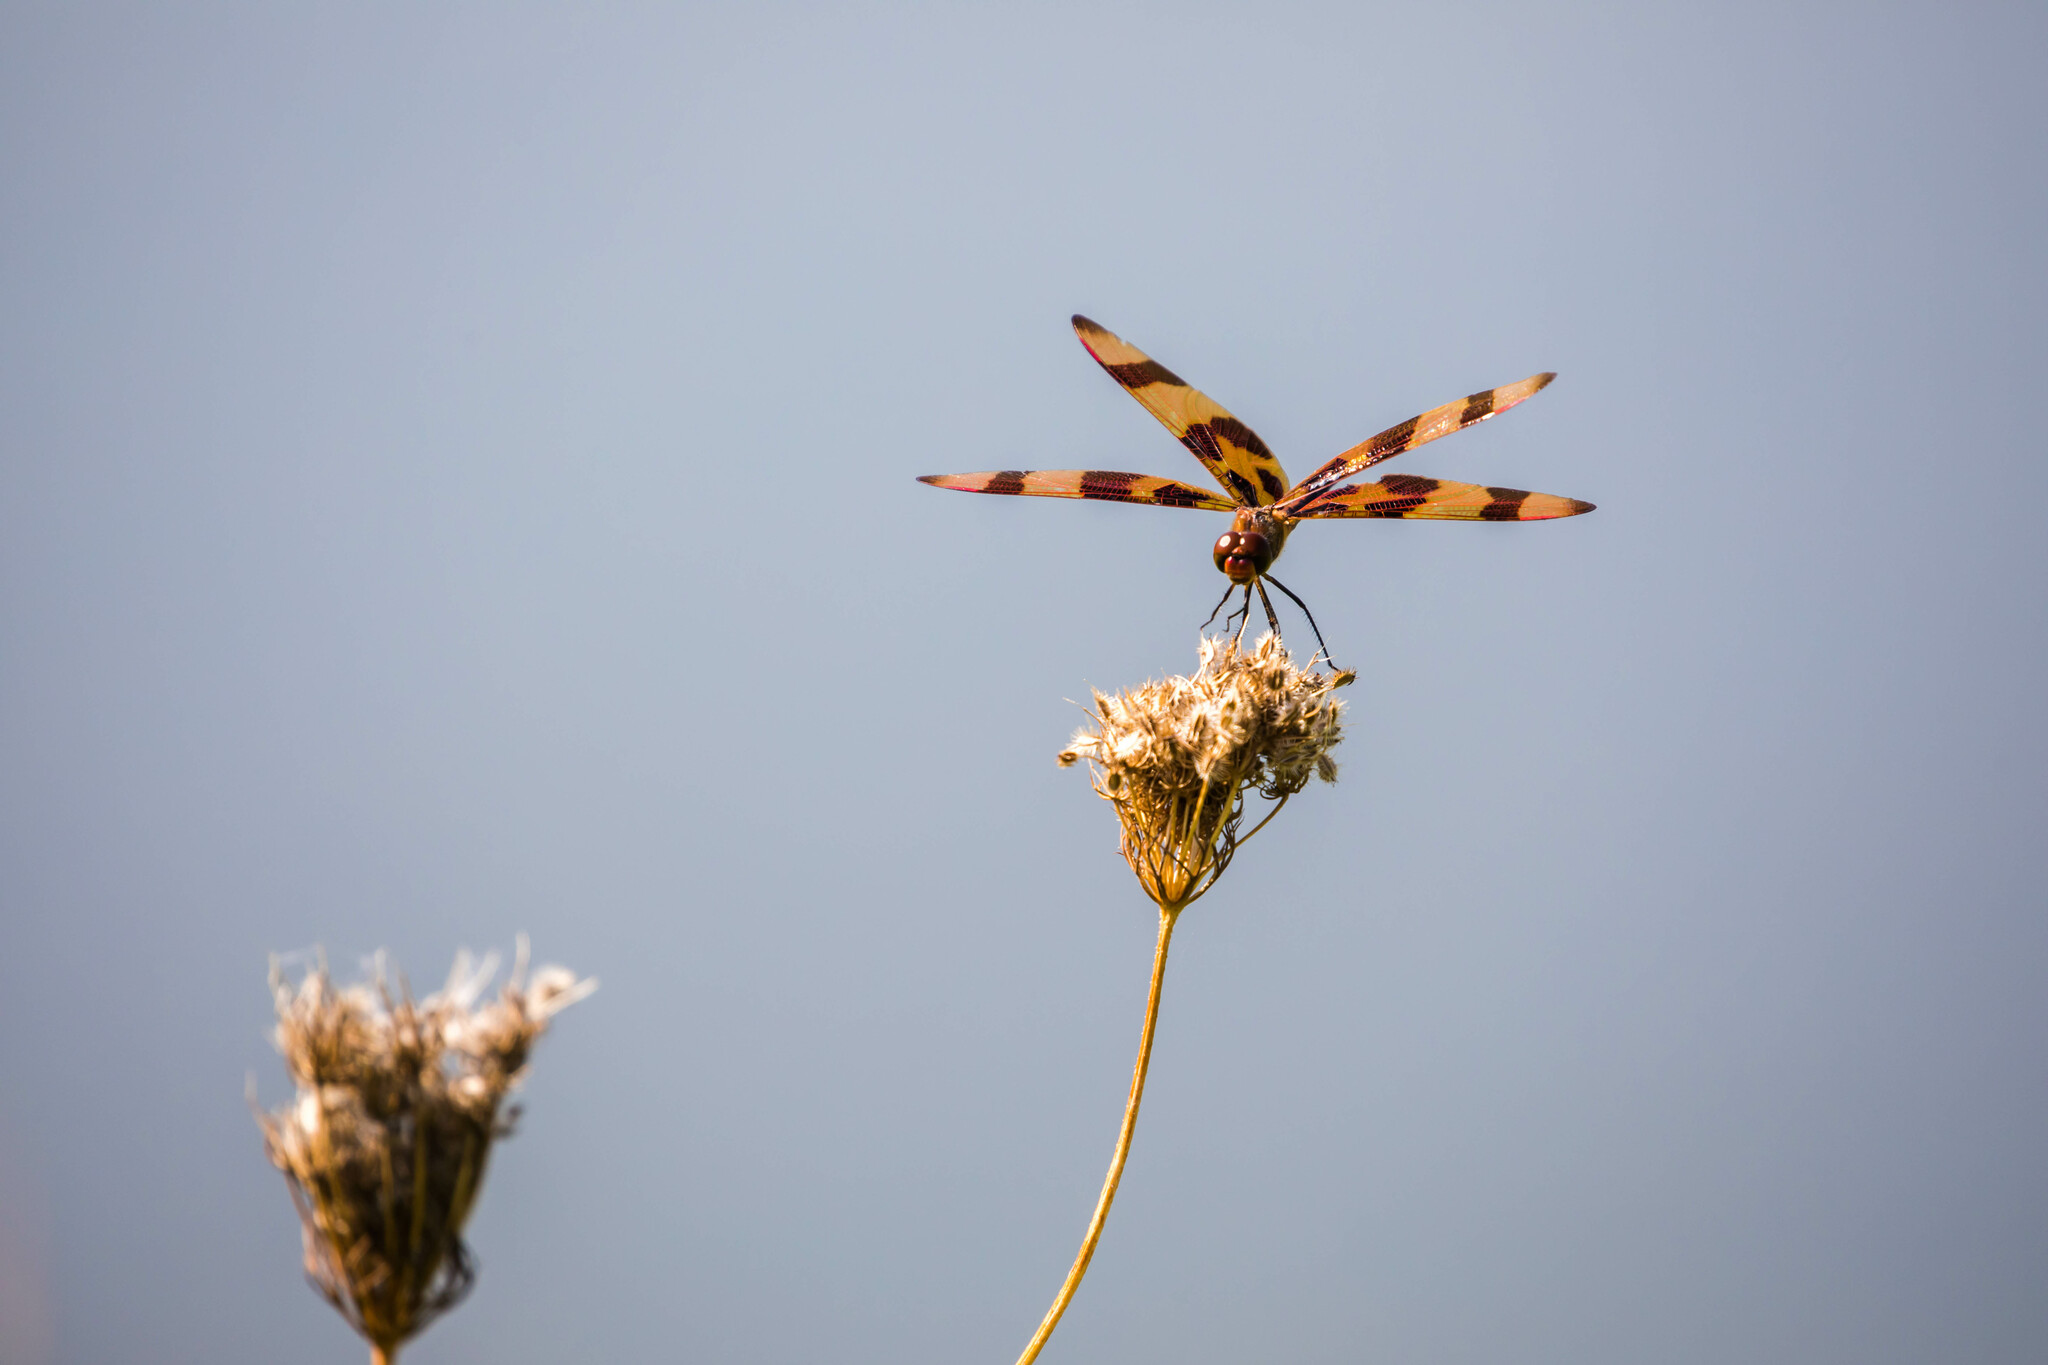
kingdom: Animalia
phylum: Arthropoda
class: Insecta
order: Odonata
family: Libellulidae
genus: Celithemis
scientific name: Celithemis eponina
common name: Halloween pennant
